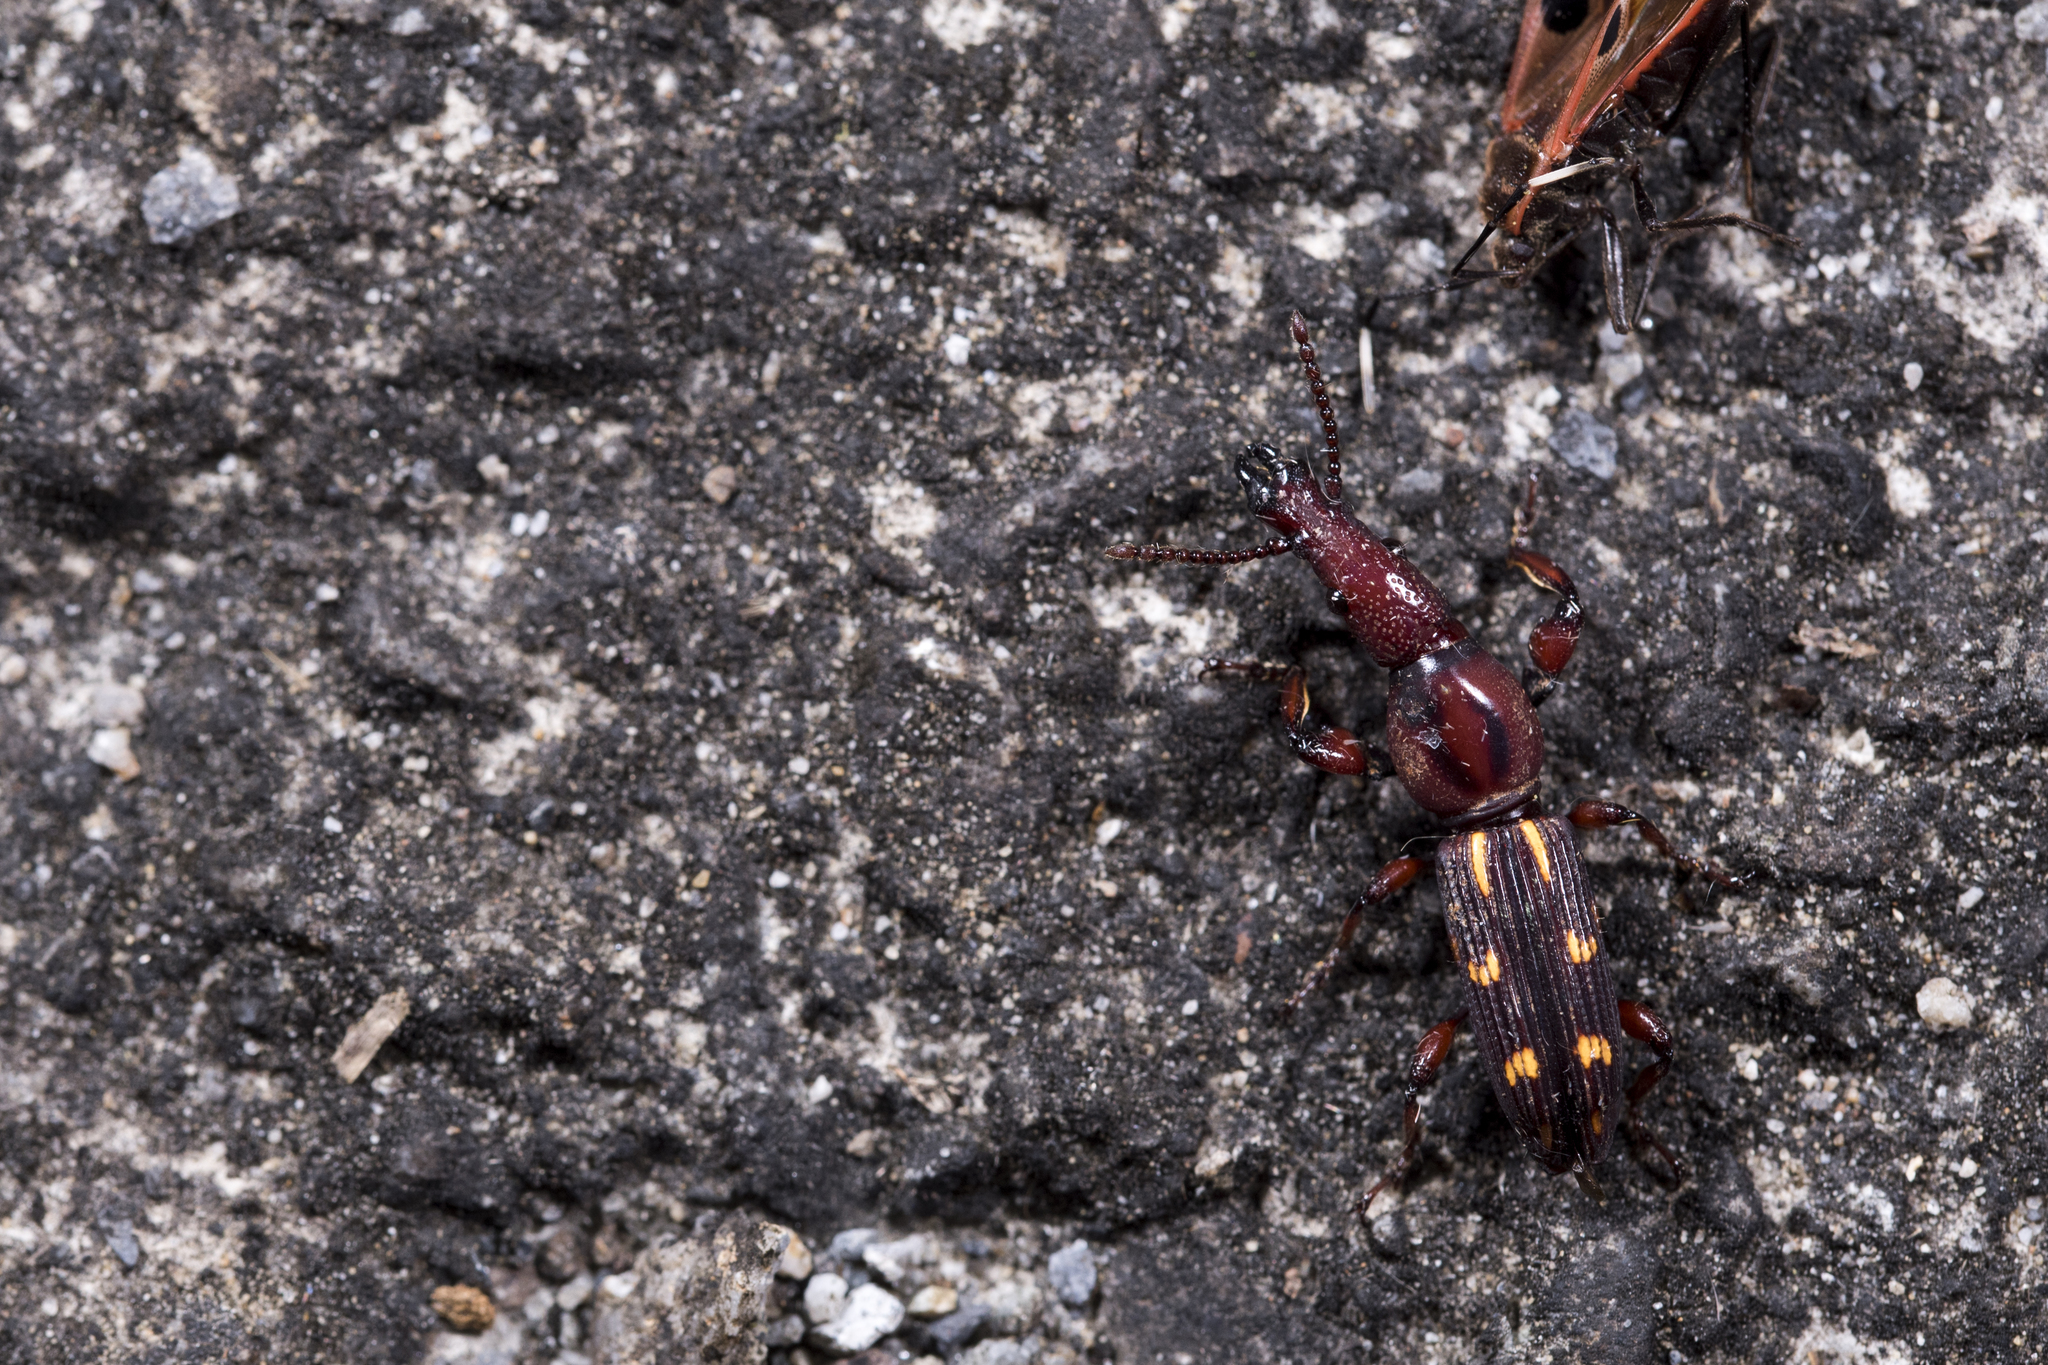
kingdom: Animalia
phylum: Arthropoda
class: Insecta
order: Coleoptera
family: Brentidae
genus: Prophthalmus
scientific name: Prophthalmus wichmanni
